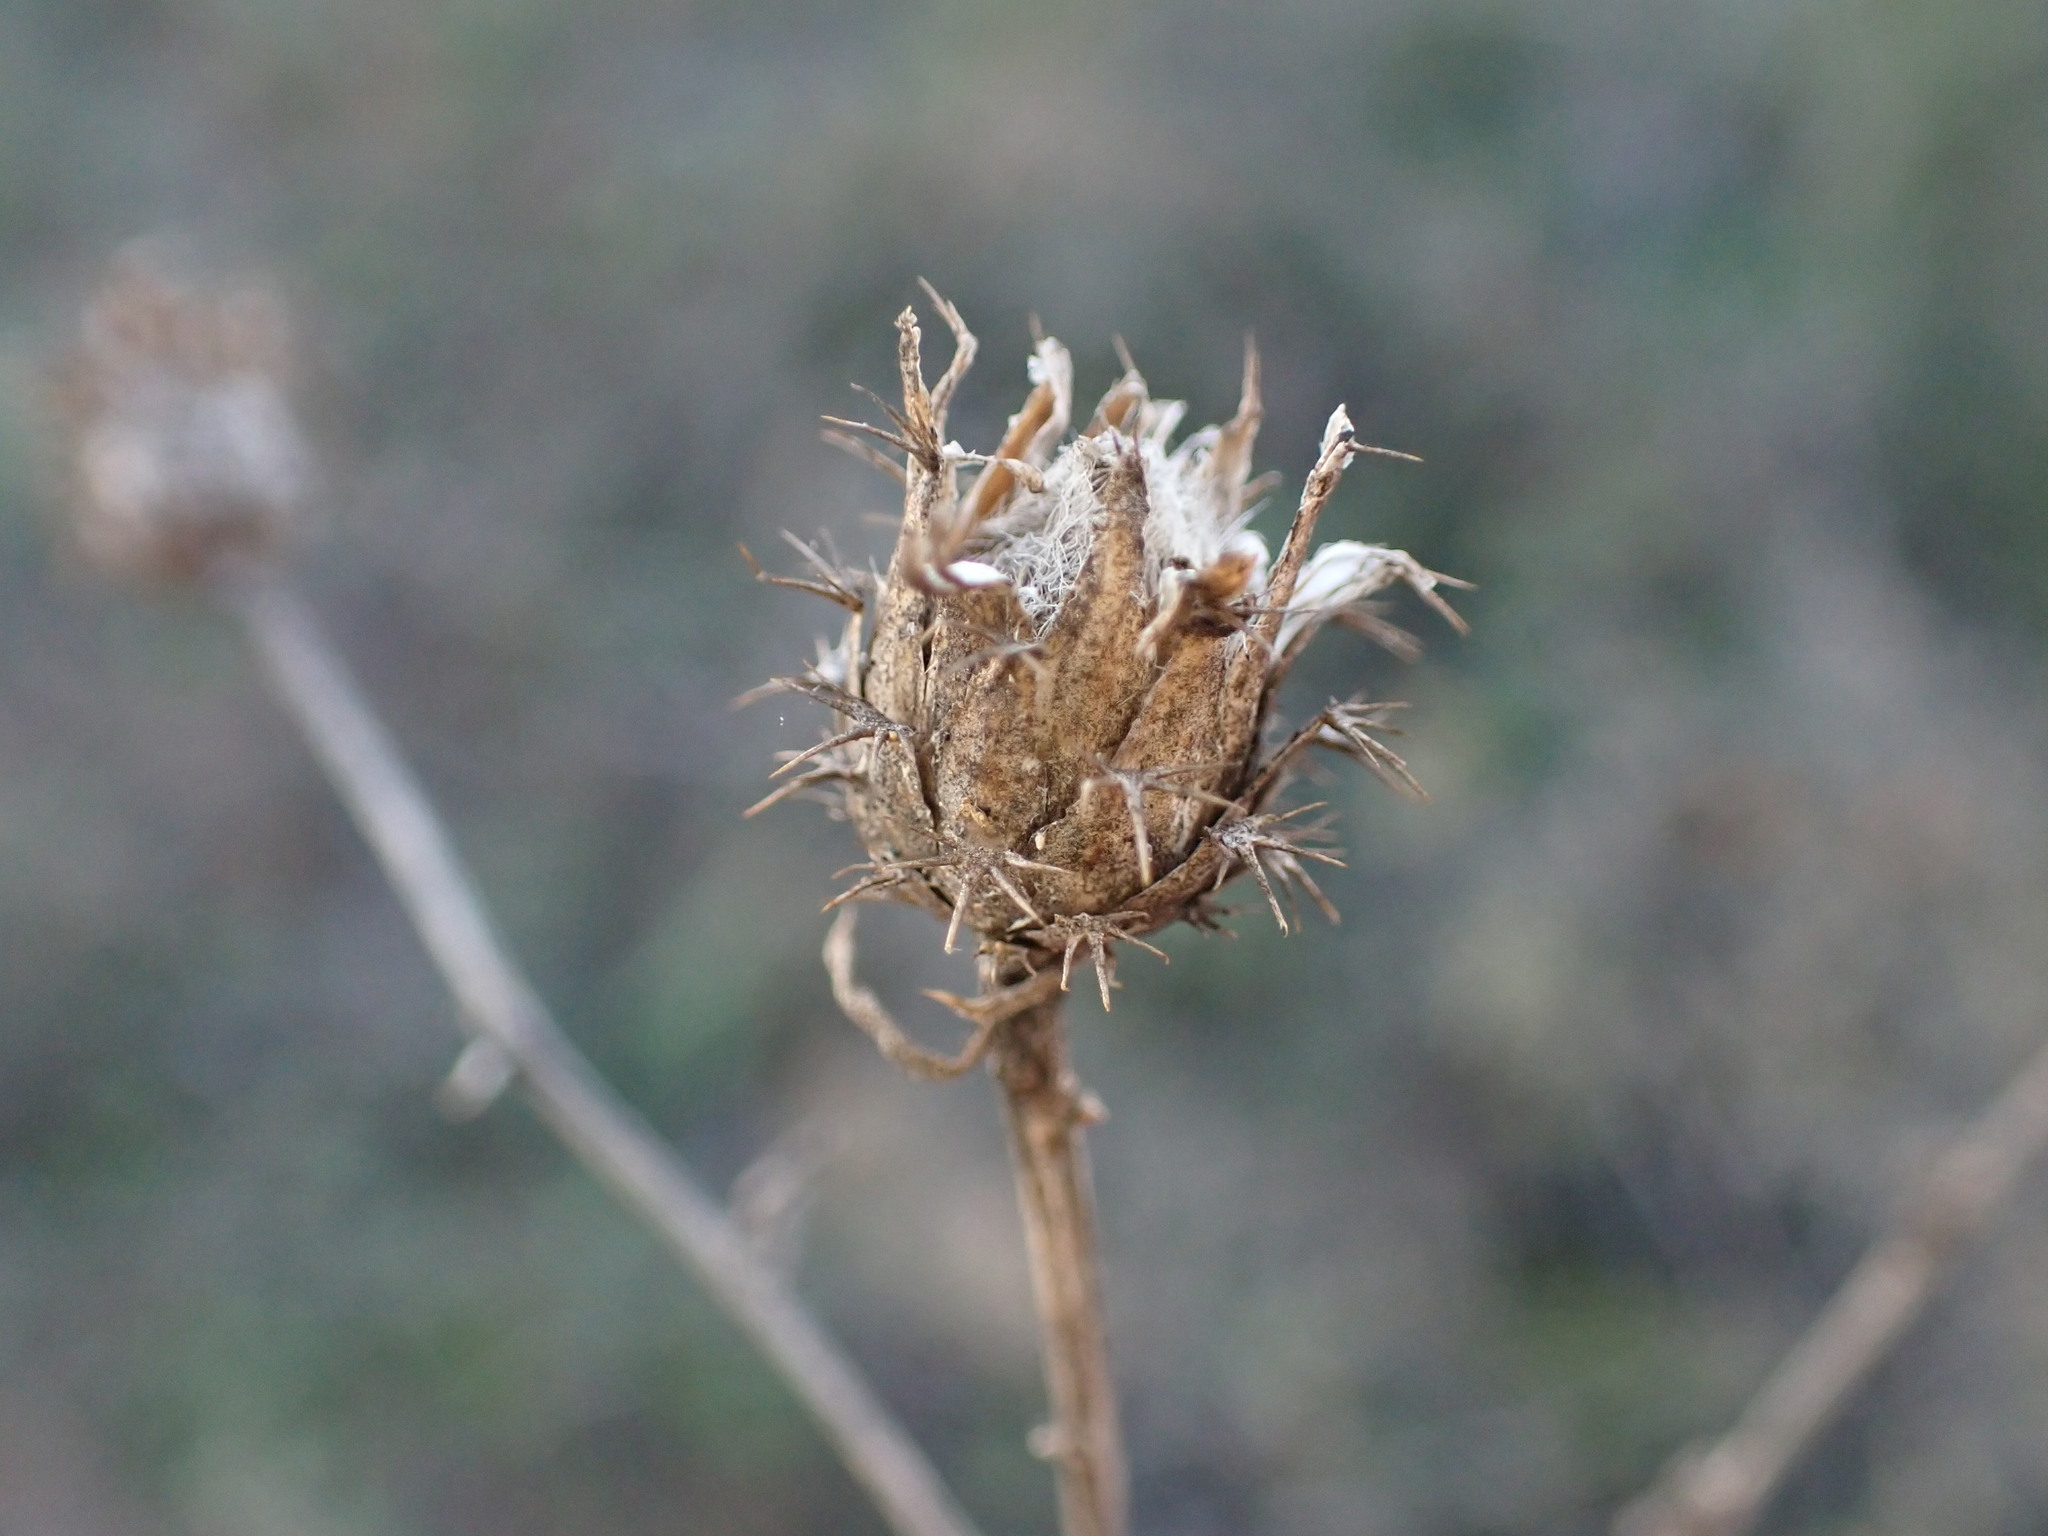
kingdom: Plantae
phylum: Tracheophyta
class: Magnoliopsida
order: Asterales
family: Asteraceae
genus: Centaurea
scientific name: Centaurea aspera
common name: Rough star-thistle
